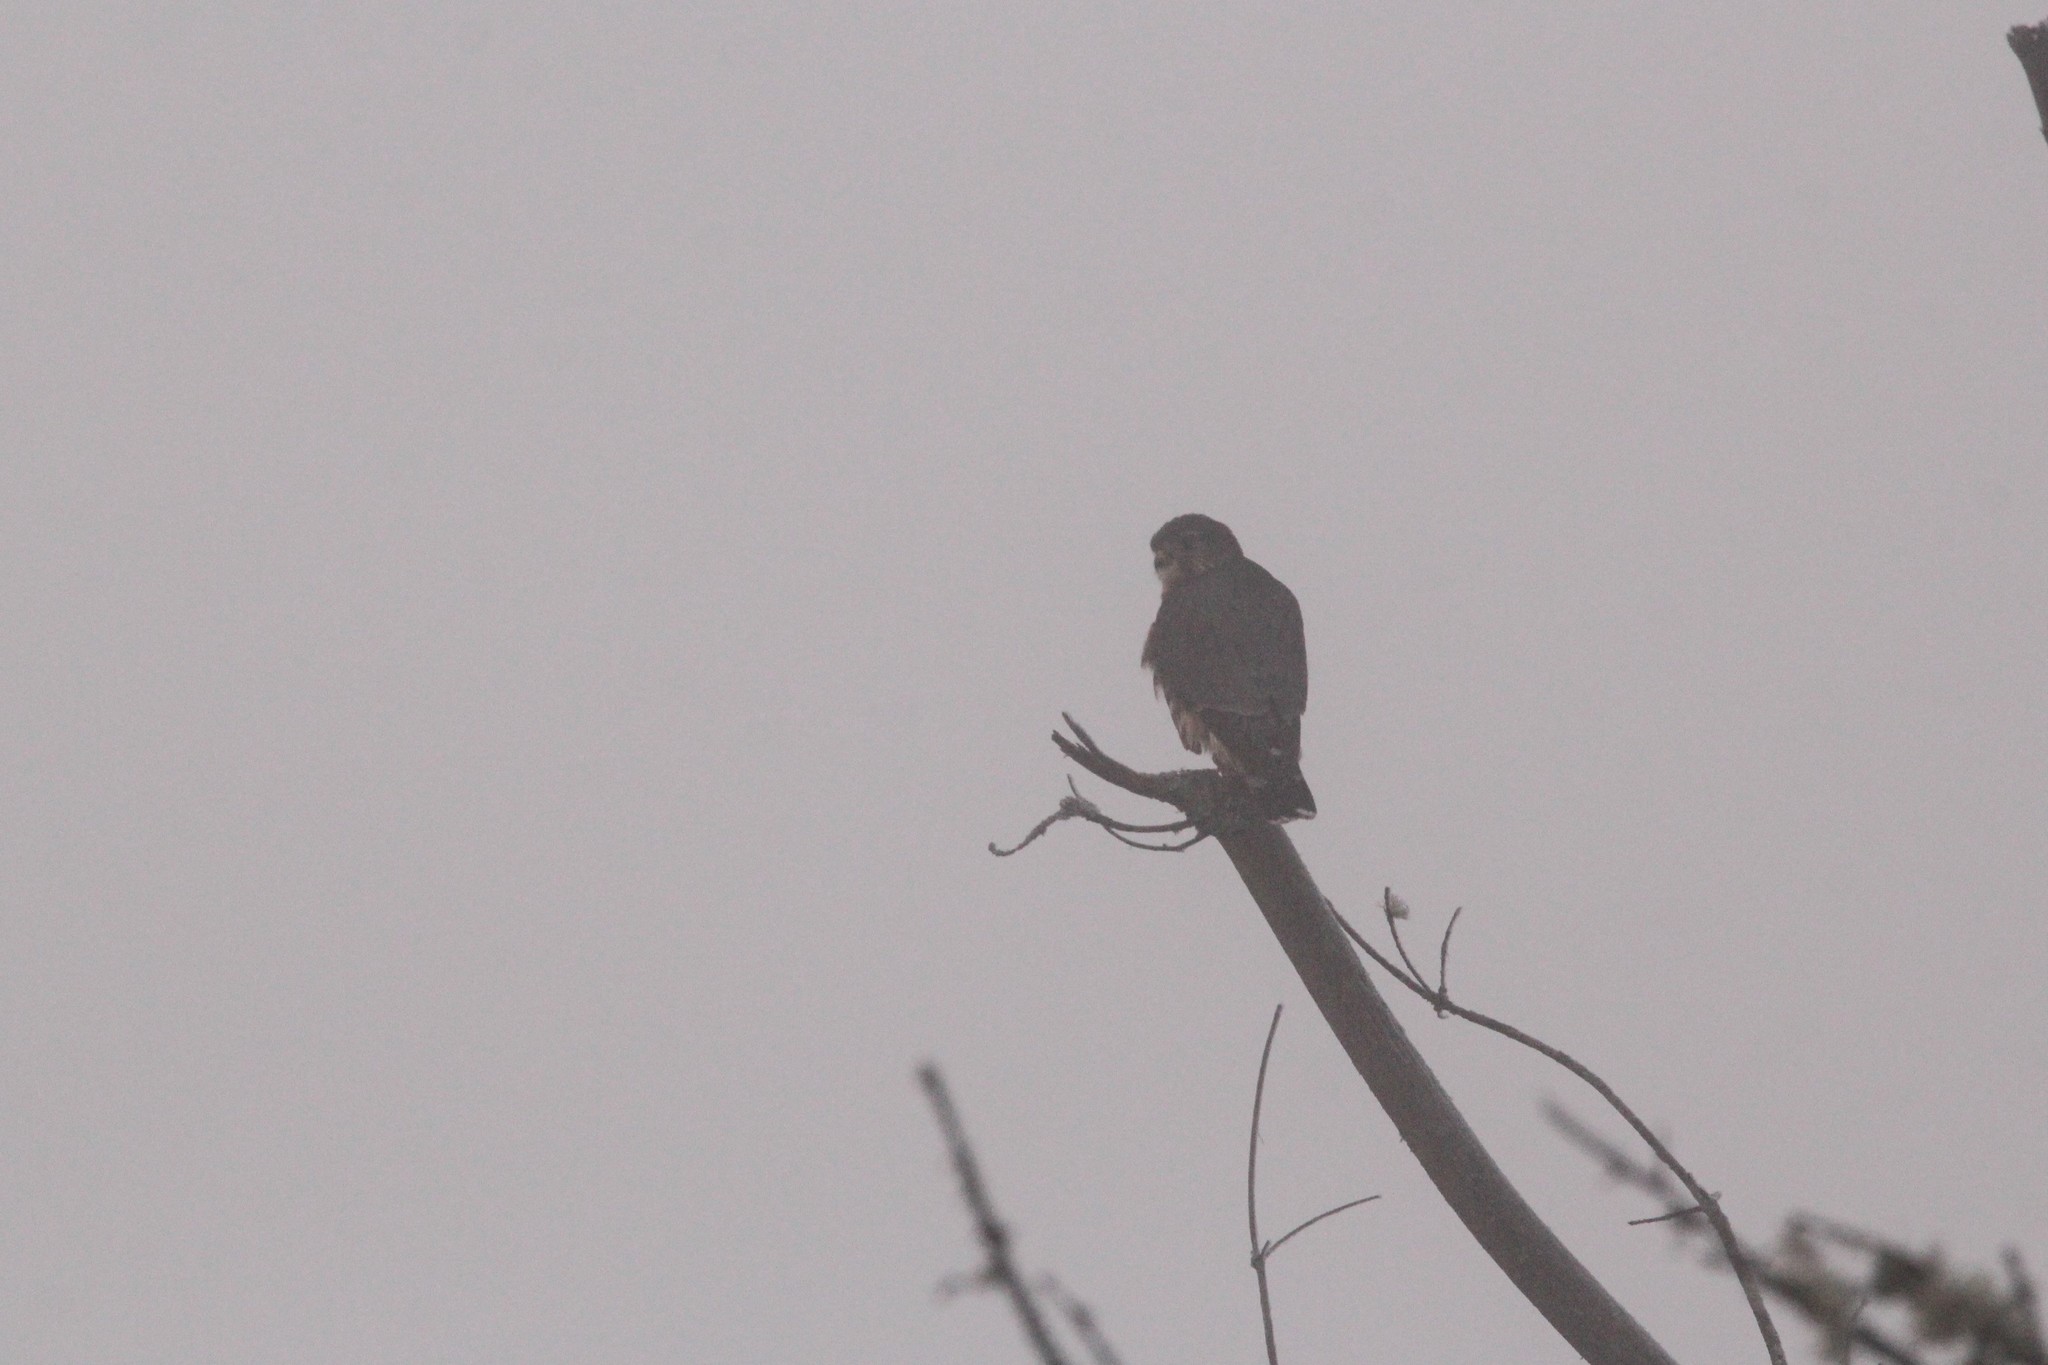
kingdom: Animalia
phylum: Chordata
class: Aves
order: Falconiformes
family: Falconidae
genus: Falco
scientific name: Falco columbarius
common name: Merlin
